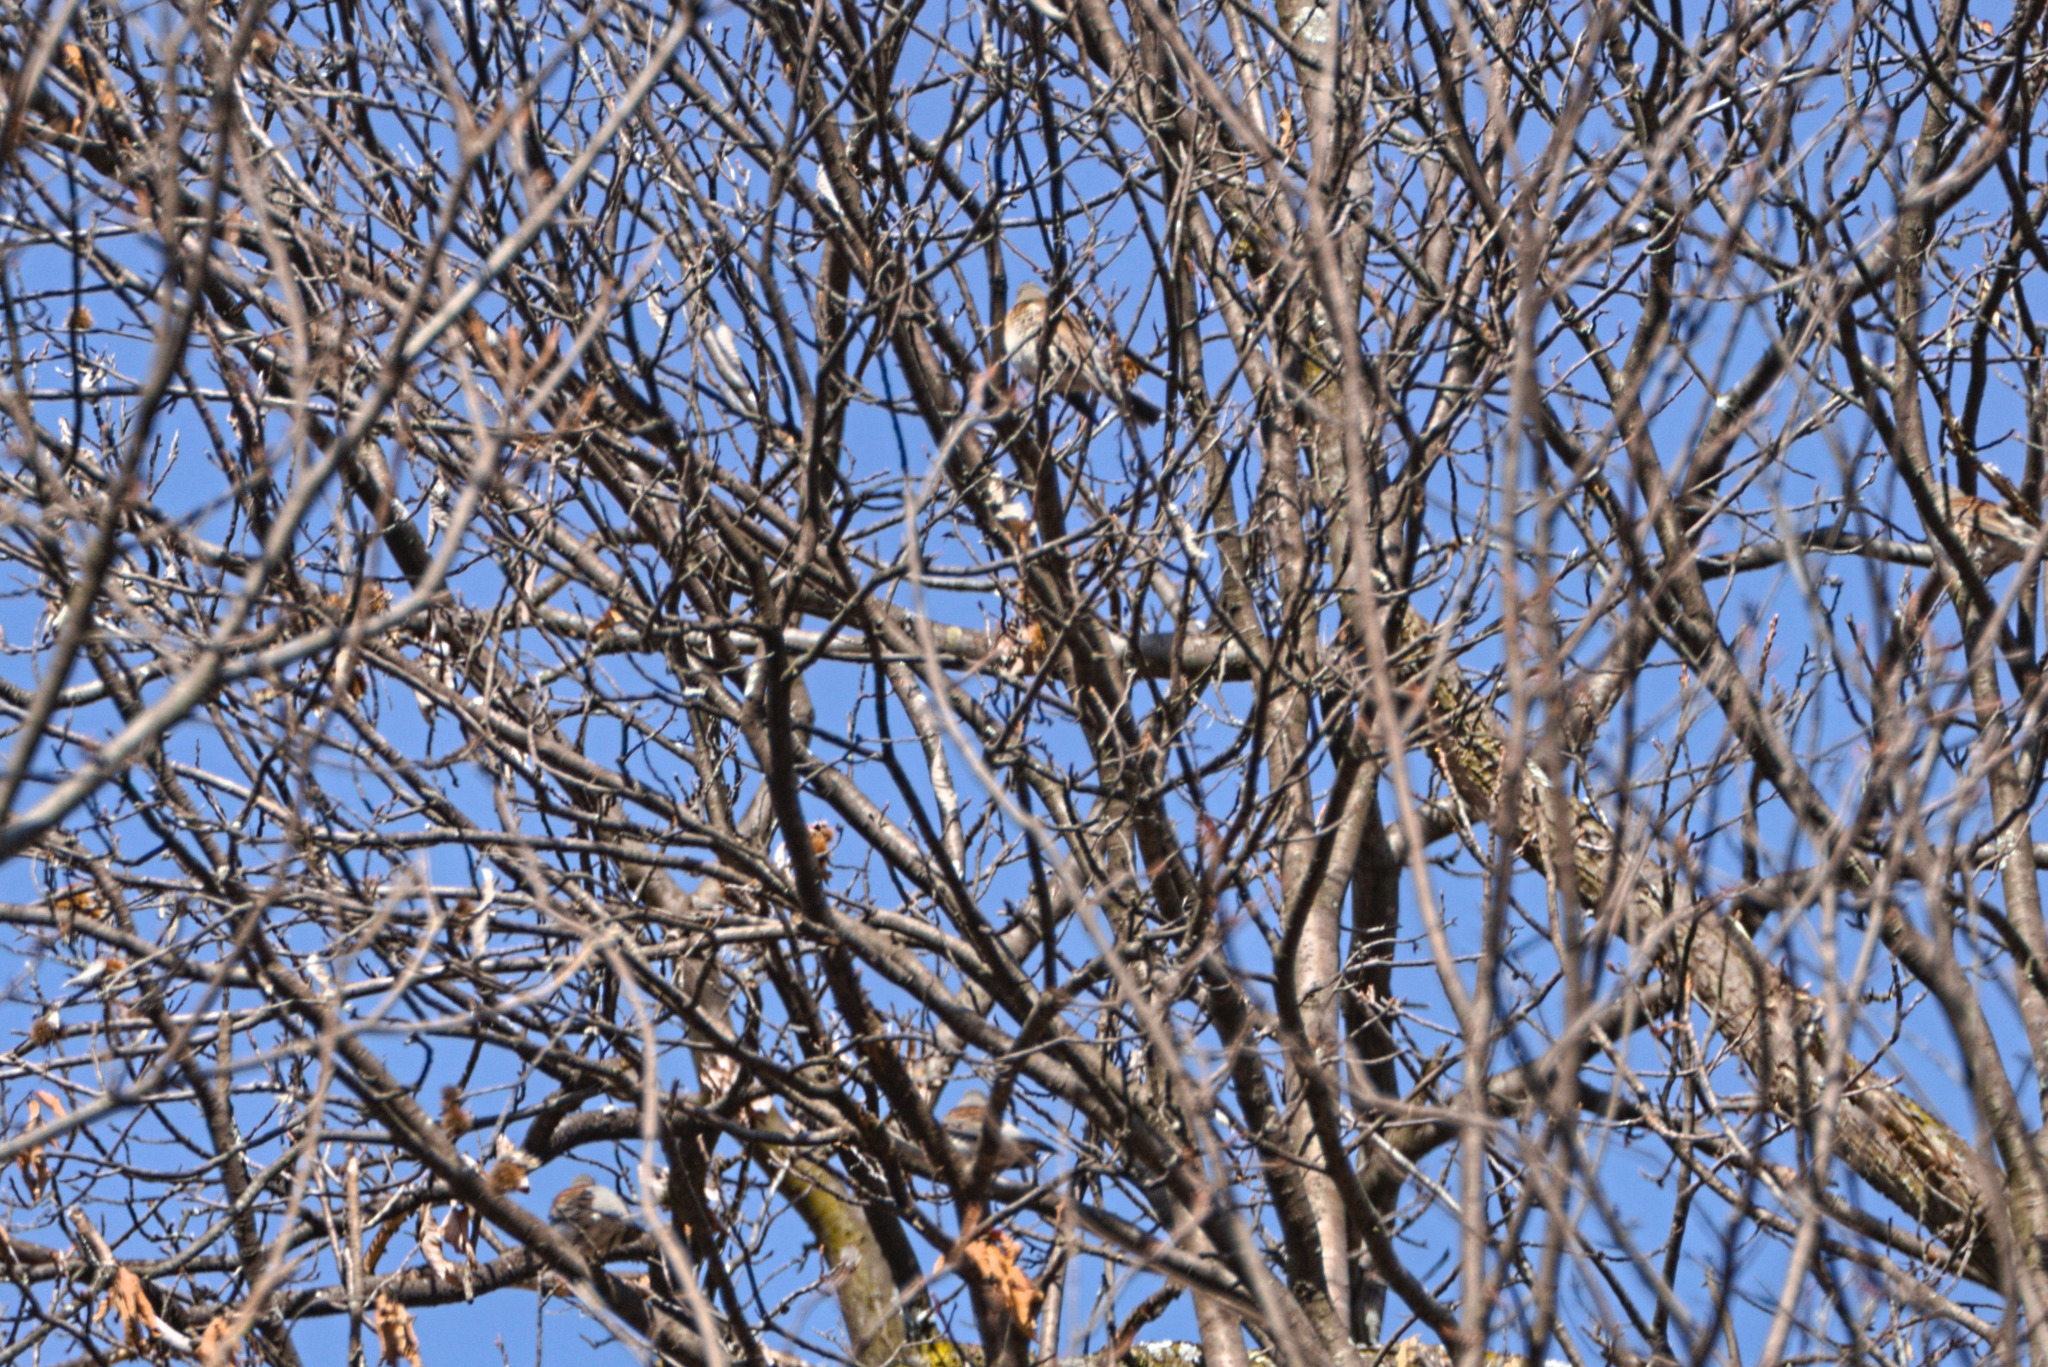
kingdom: Animalia
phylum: Chordata
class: Aves
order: Passeriformes
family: Turdidae
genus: Turdus
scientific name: Turdus pilaris
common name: Fieldfare
